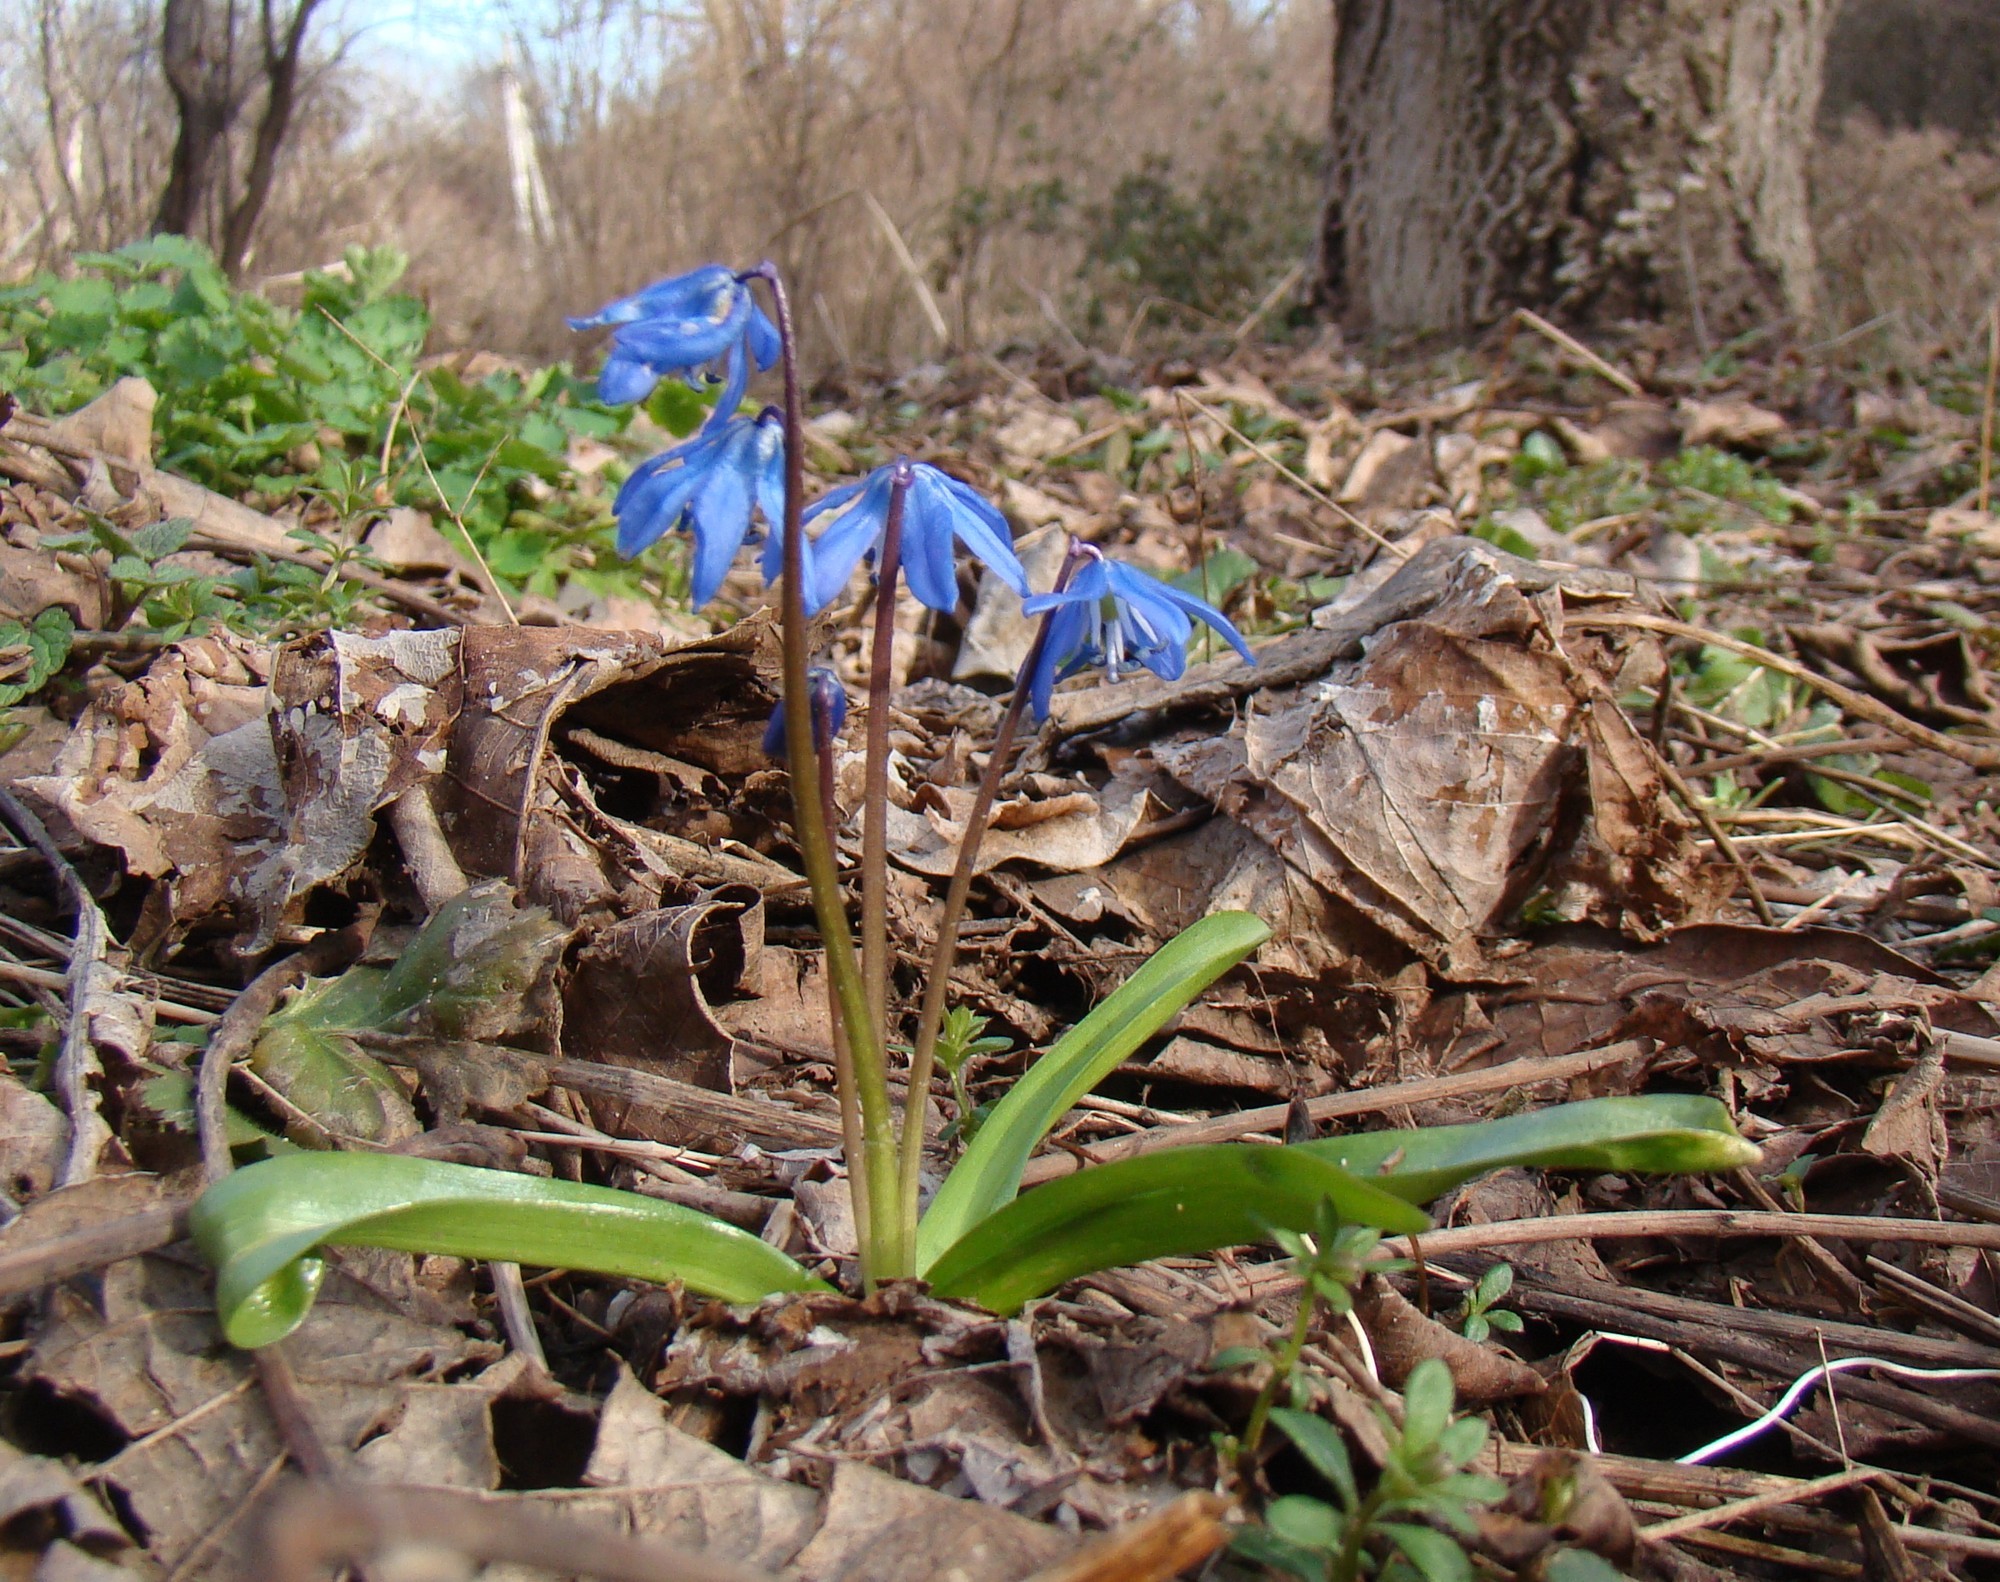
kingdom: Plantae
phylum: Tracheophyta
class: Liliopsida
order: Asparagales
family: Asparagaceae
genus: Scilla
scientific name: Scilla siberica
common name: Siberian squill
